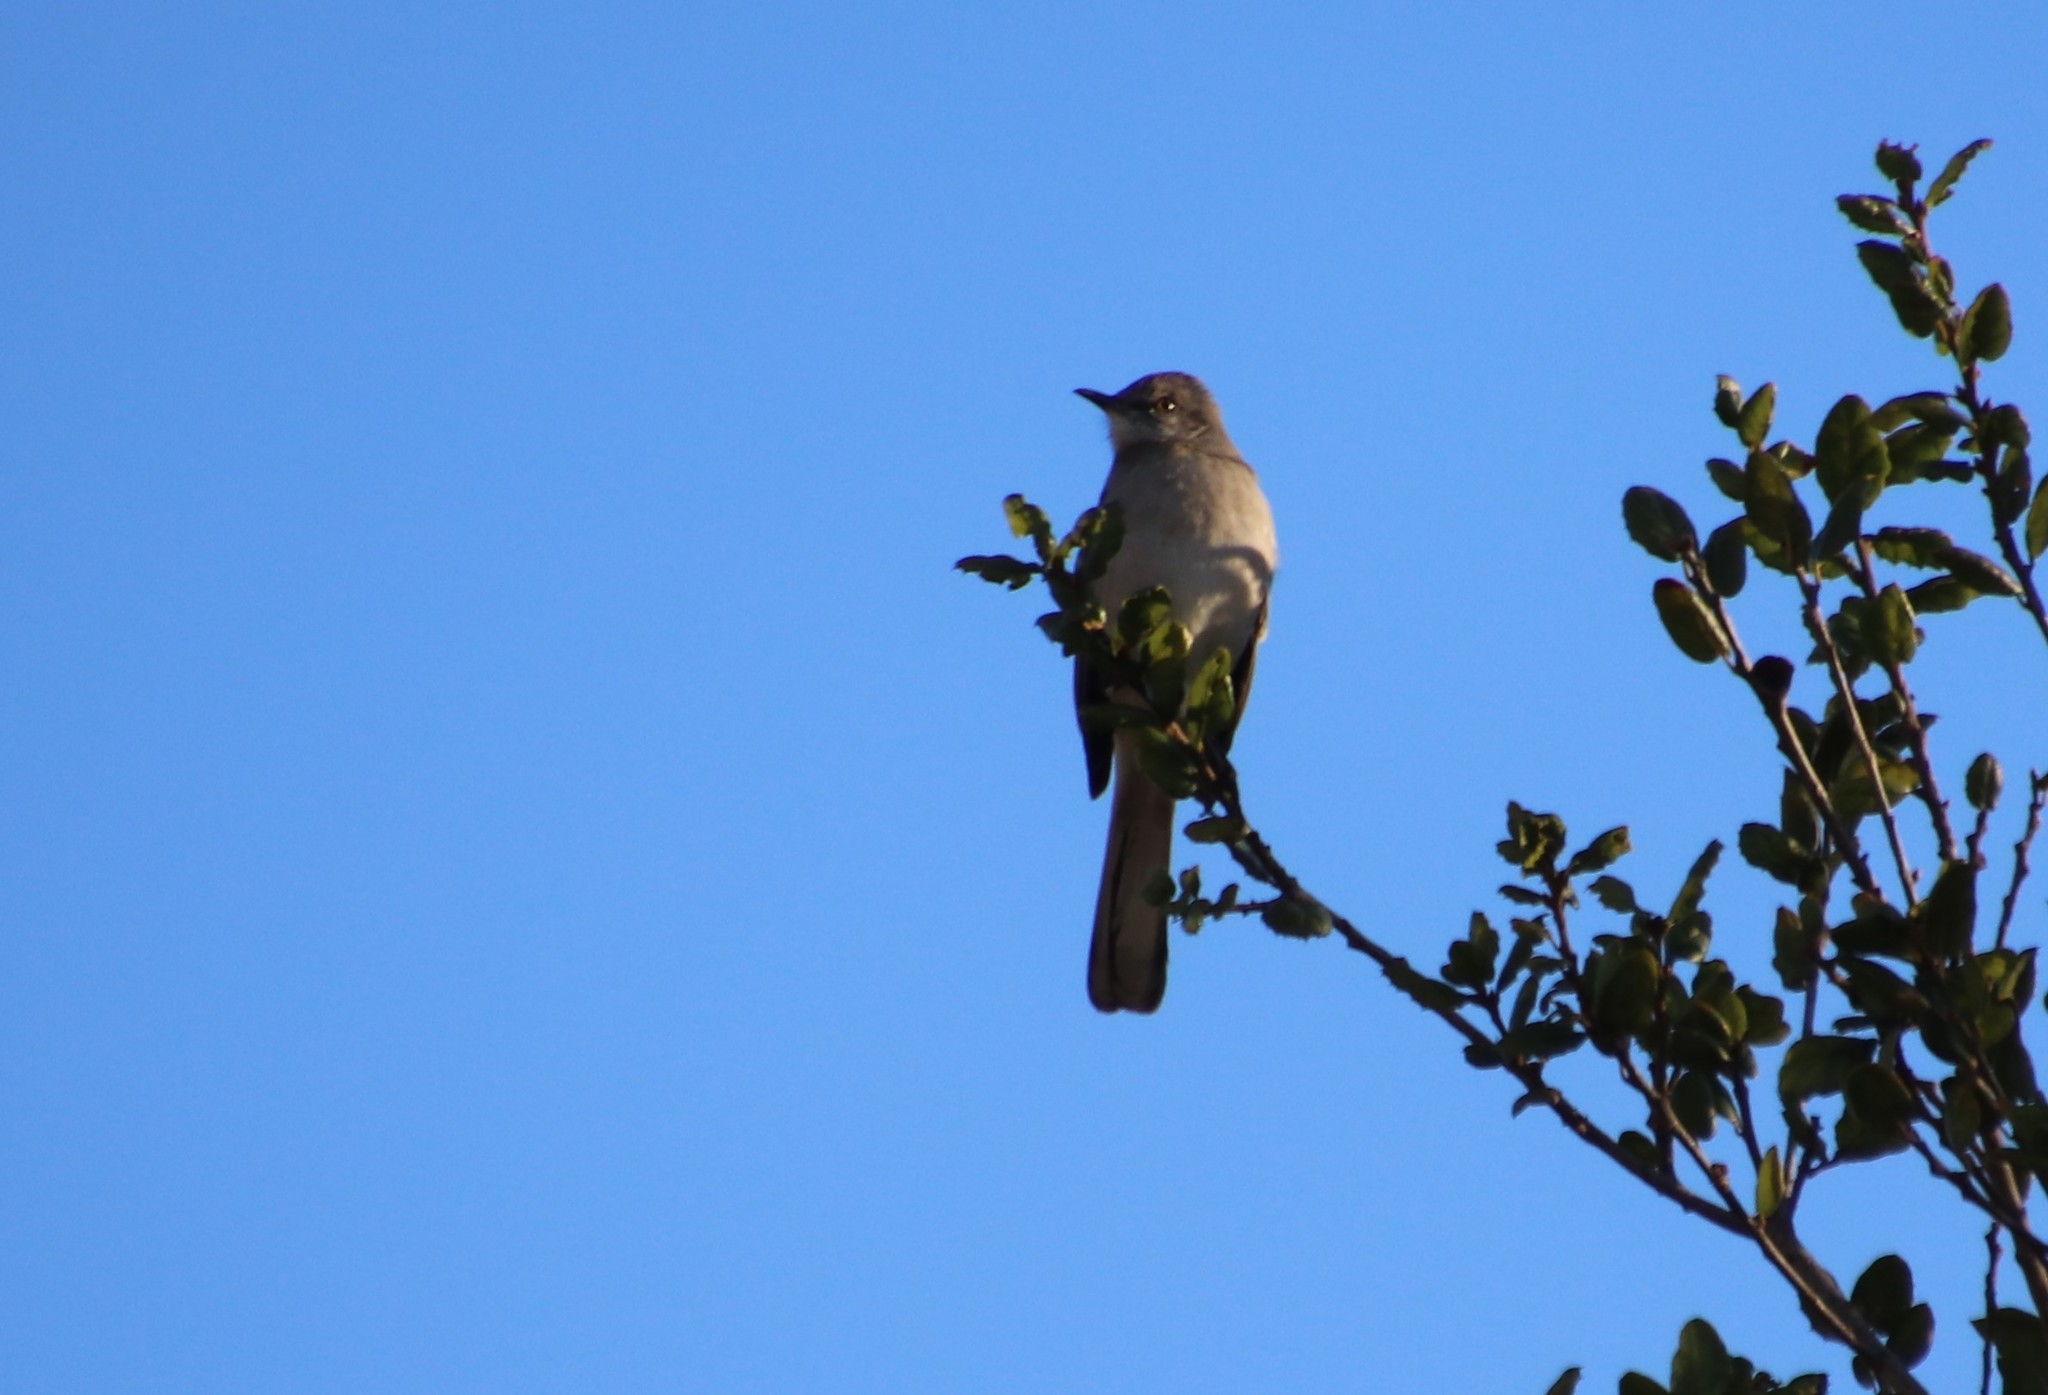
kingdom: Animalia
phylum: Chordata
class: Aves
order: Passeriformes
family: Mimidae
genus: Mimus
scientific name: Mimus polyglottos
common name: Northern mockingbird
